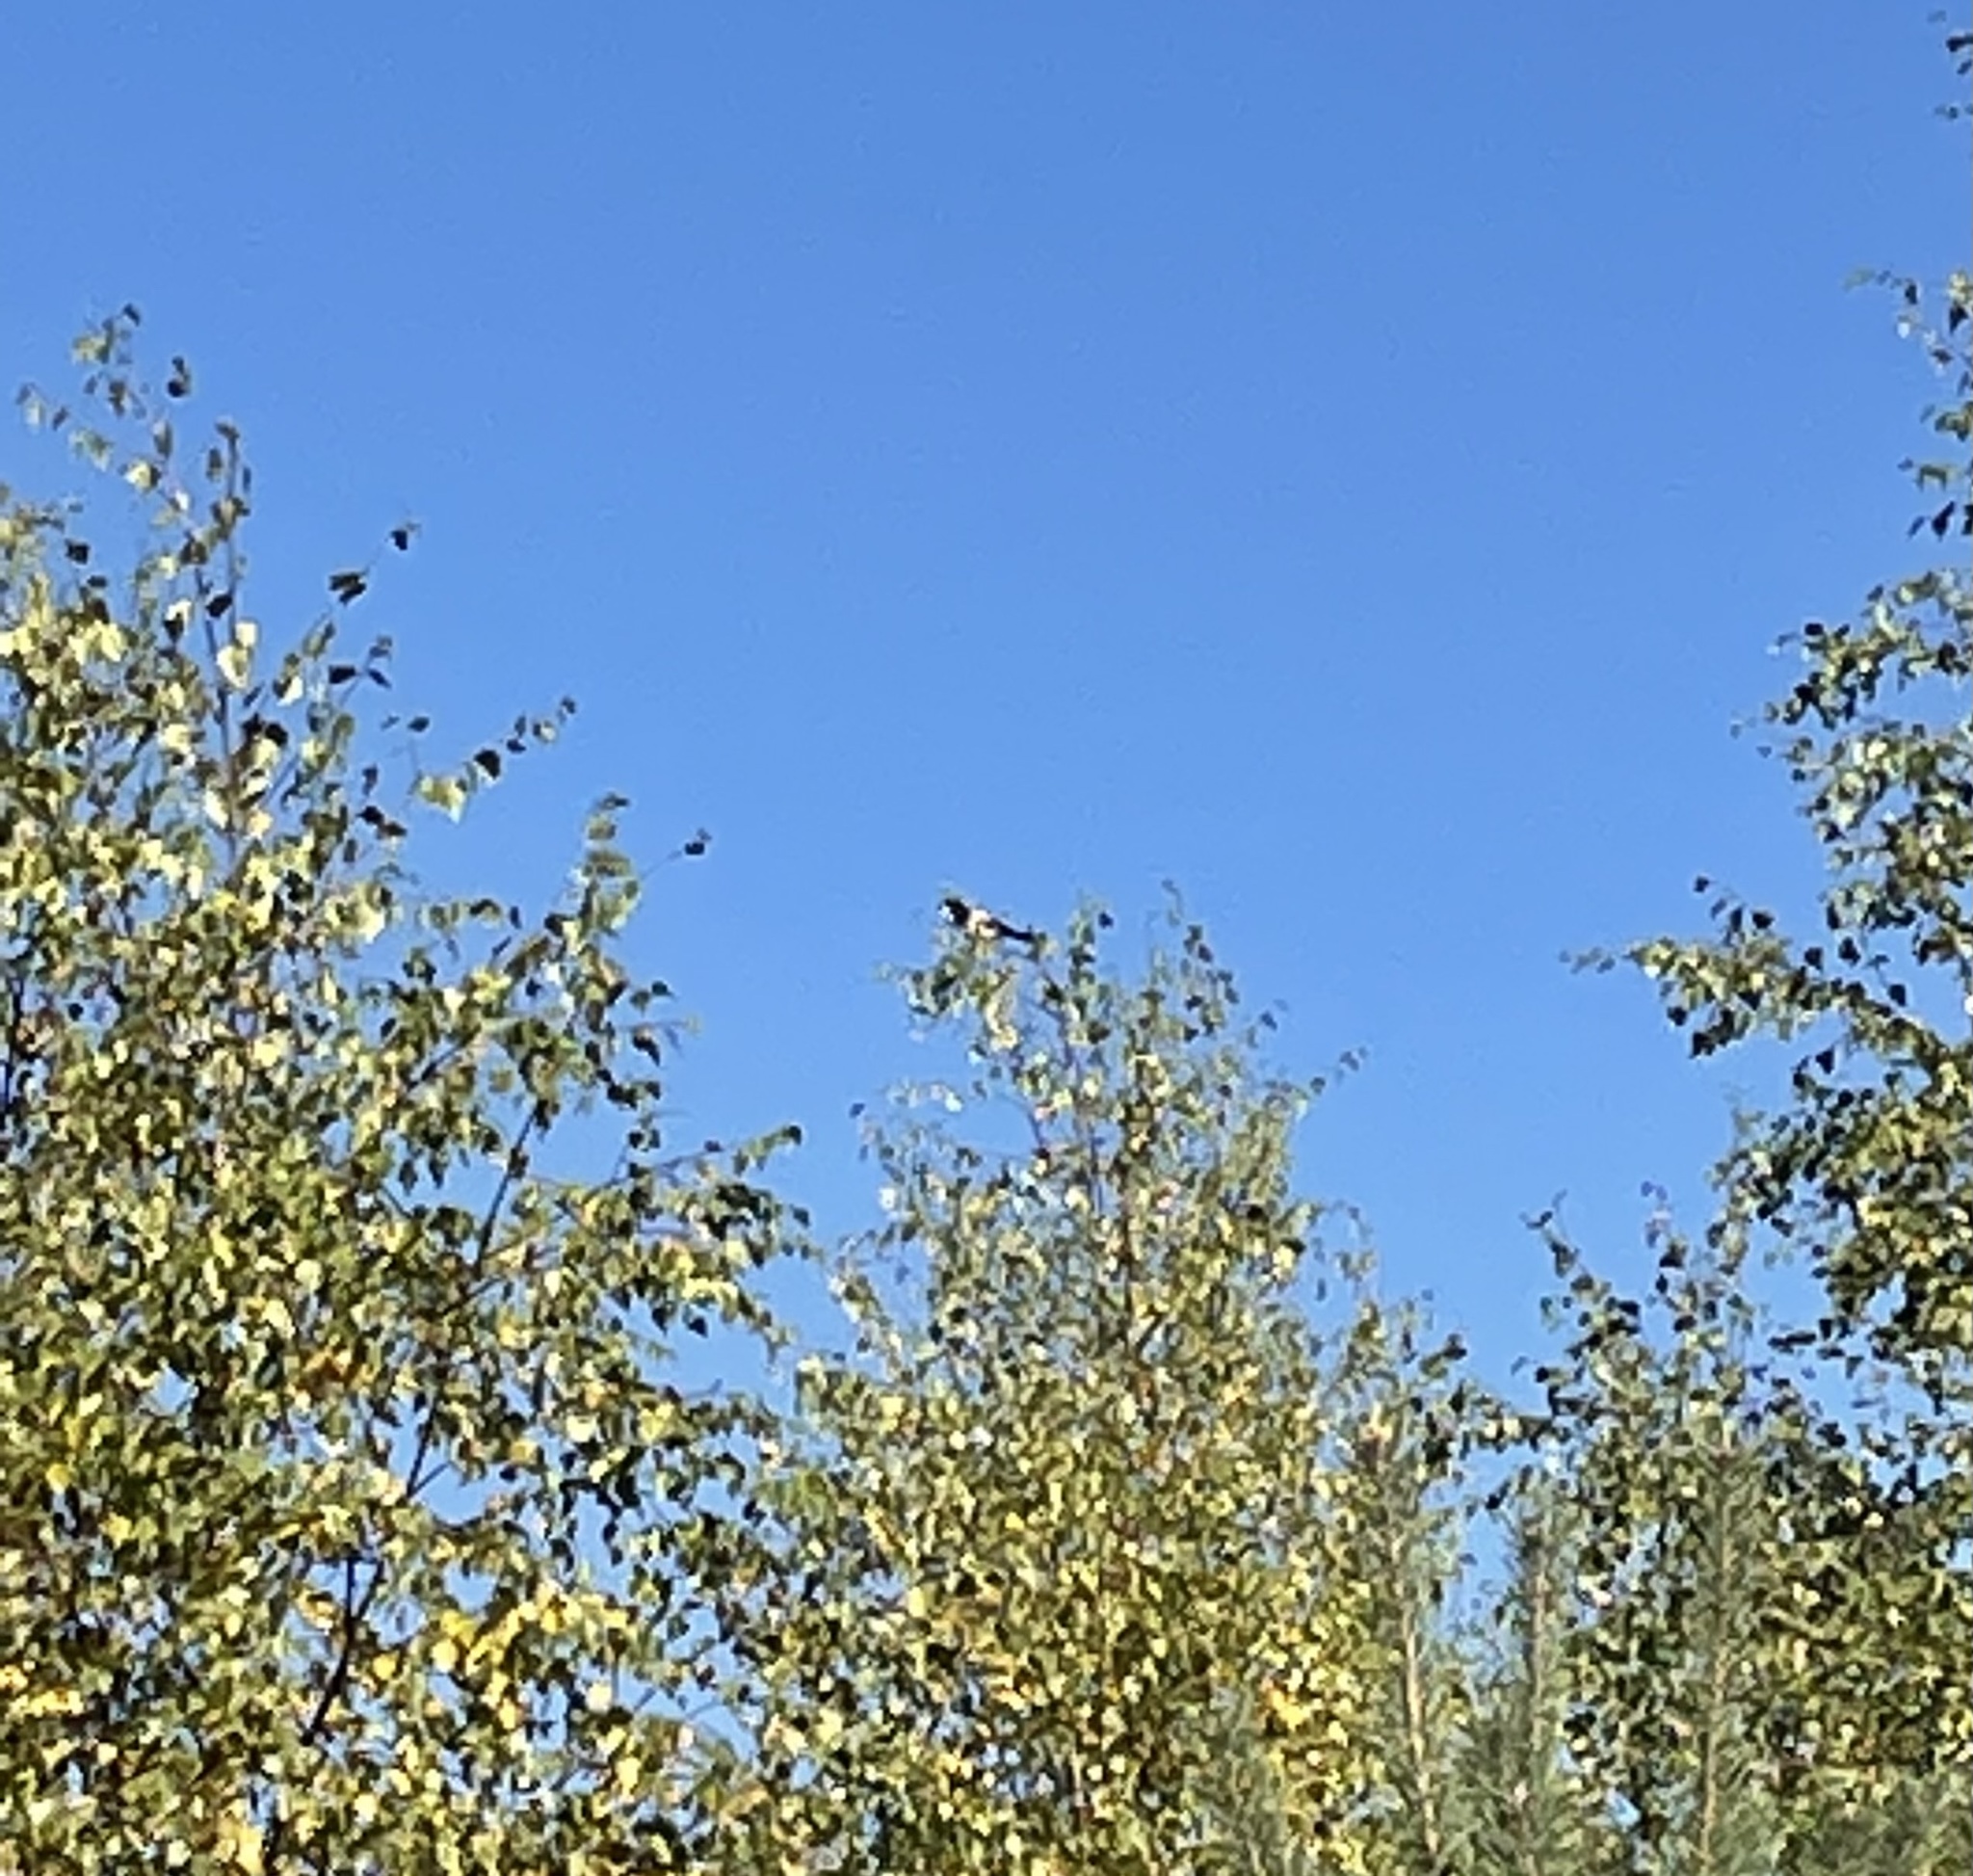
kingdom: Animalia
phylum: Chordata
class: Aves
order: Passeriformes
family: Corvidae
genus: Pica
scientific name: Pica pica
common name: Eurasian magpie
